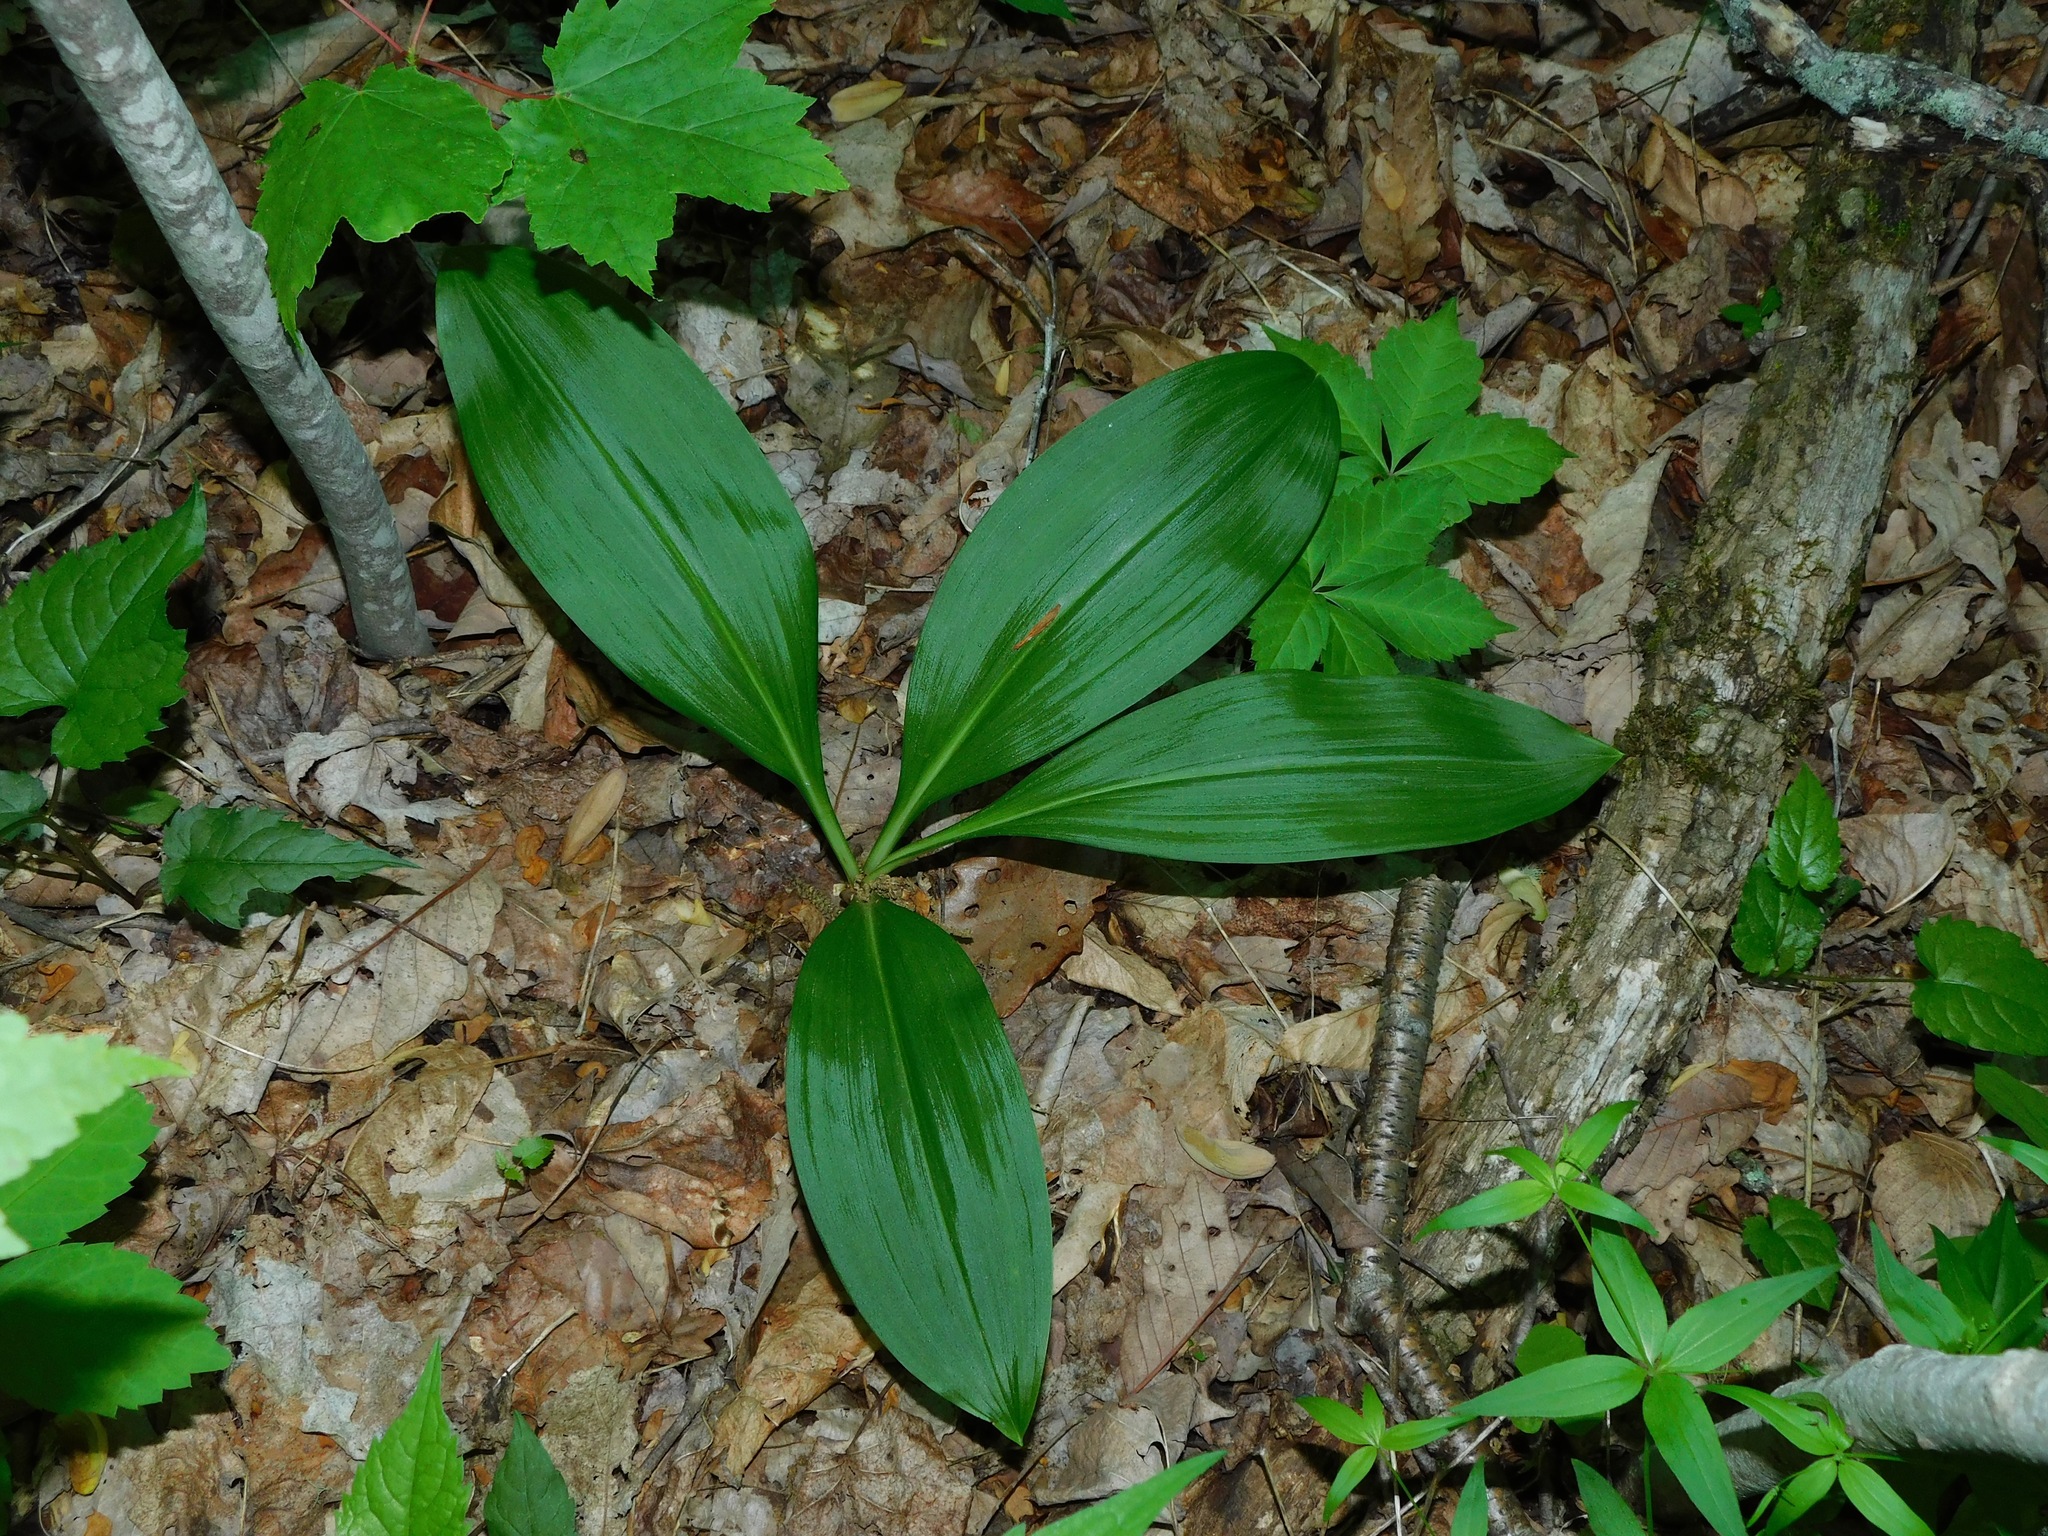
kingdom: Plantae
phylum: Tracheophyta
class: Liliopsida
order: Liliales
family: Melanthiaceae
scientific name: Melanthiaceae
